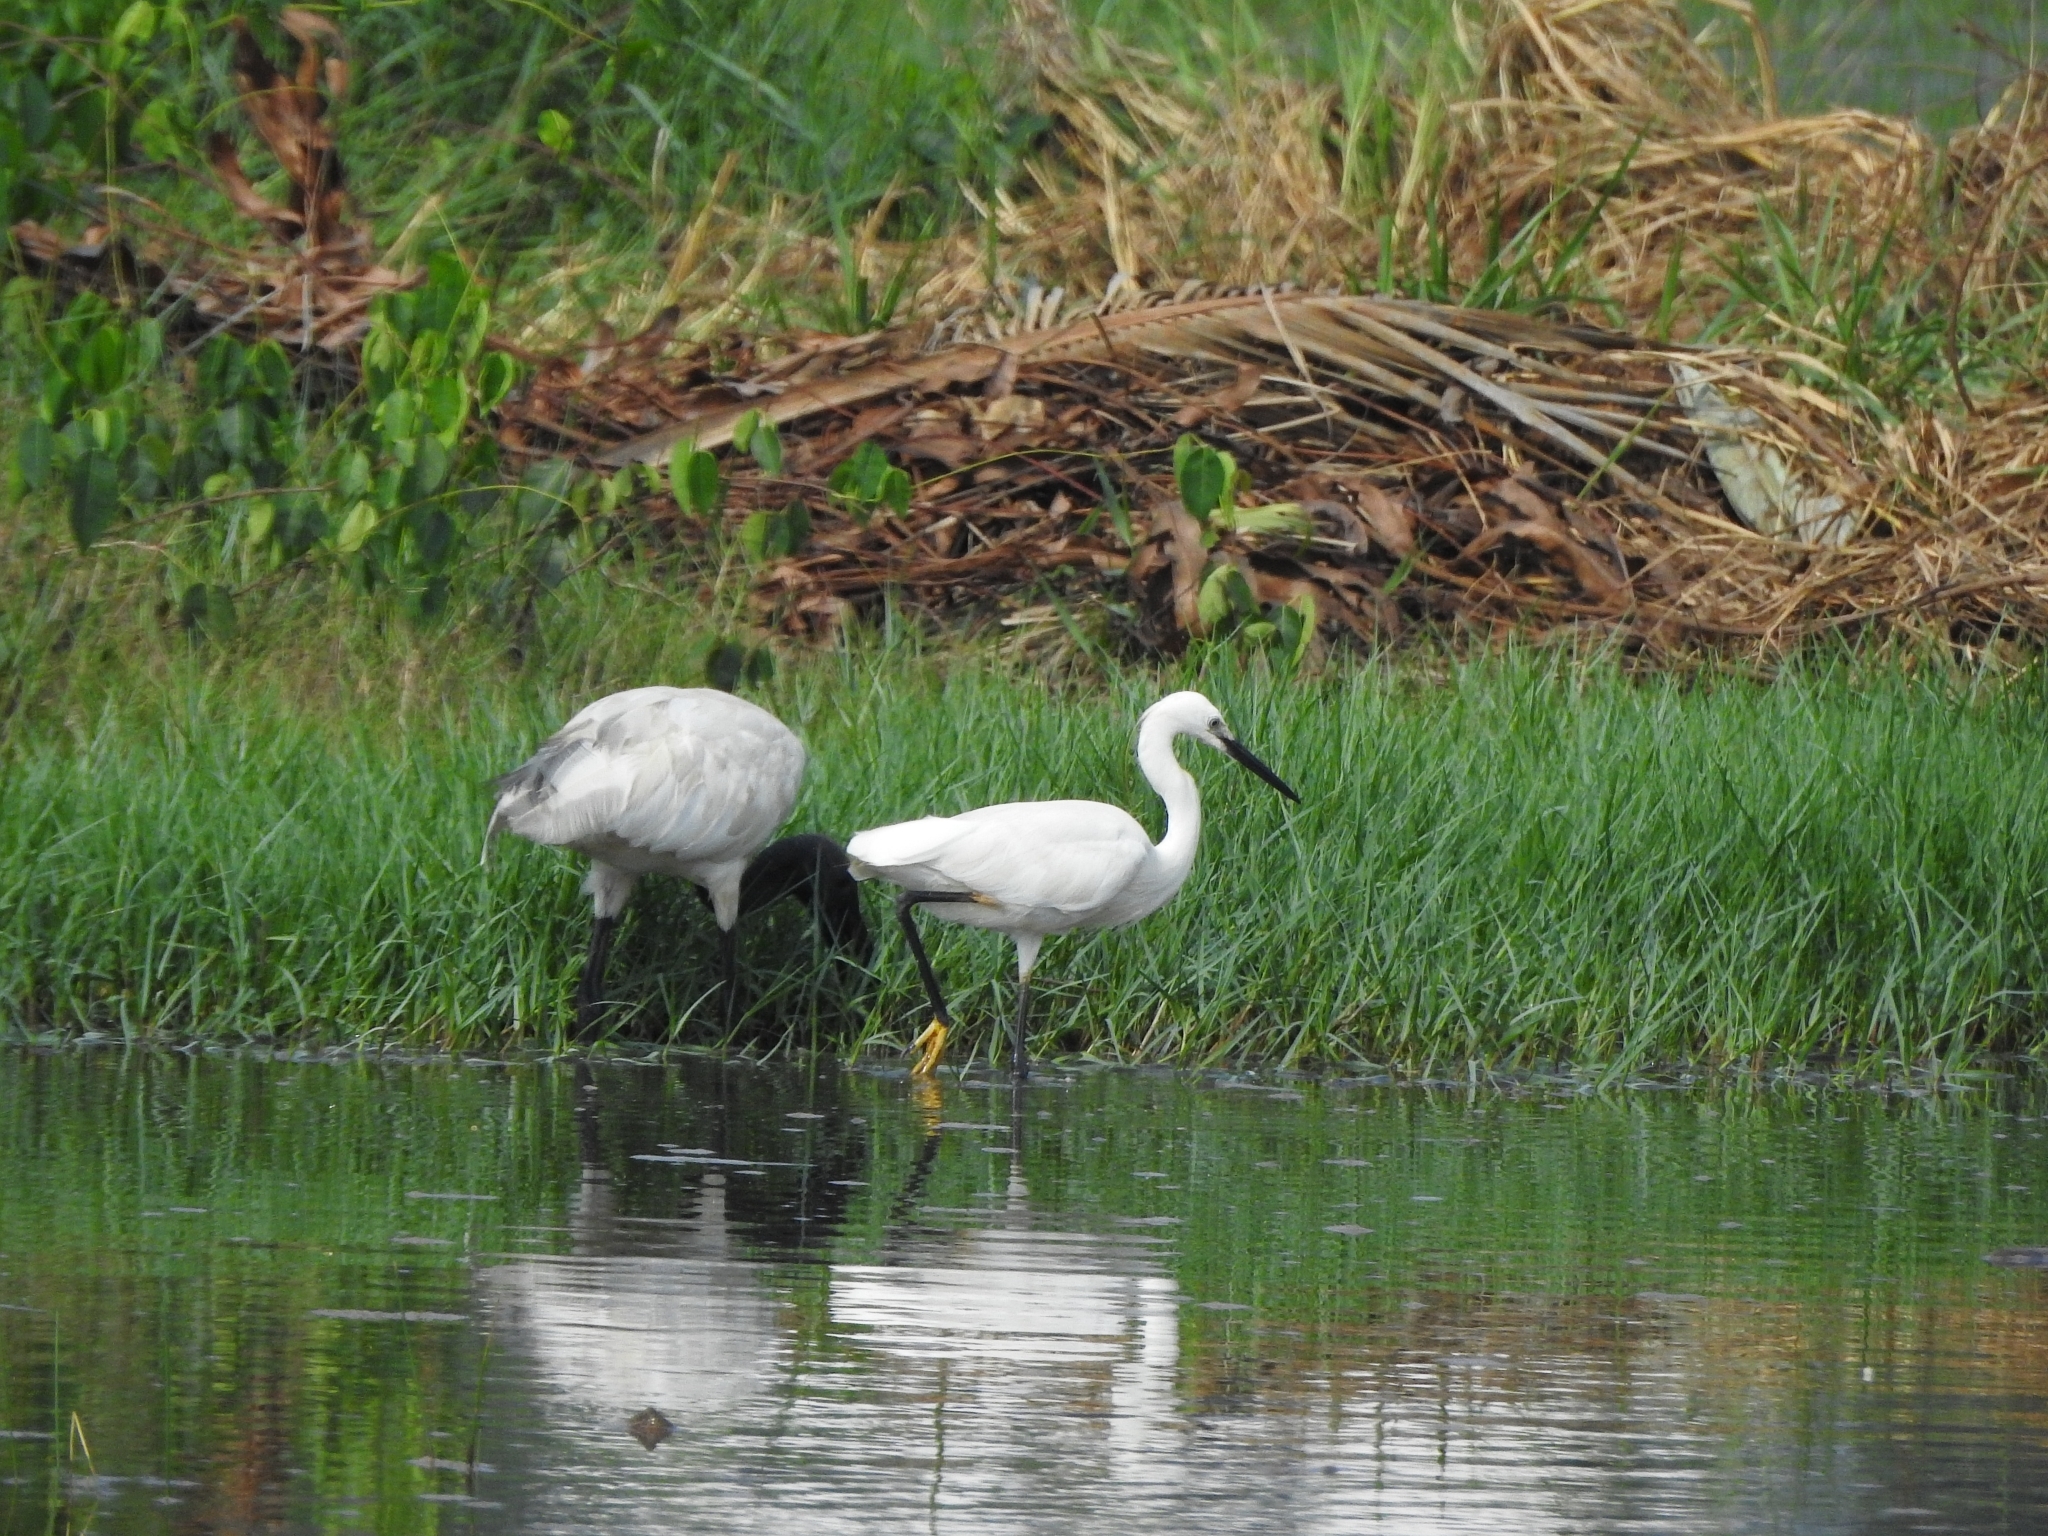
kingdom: Animalia
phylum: Chordata
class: Aves
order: Pelecaniformes
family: Ardeidae
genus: Egretta
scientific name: Egretta garzetta
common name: Little egret
